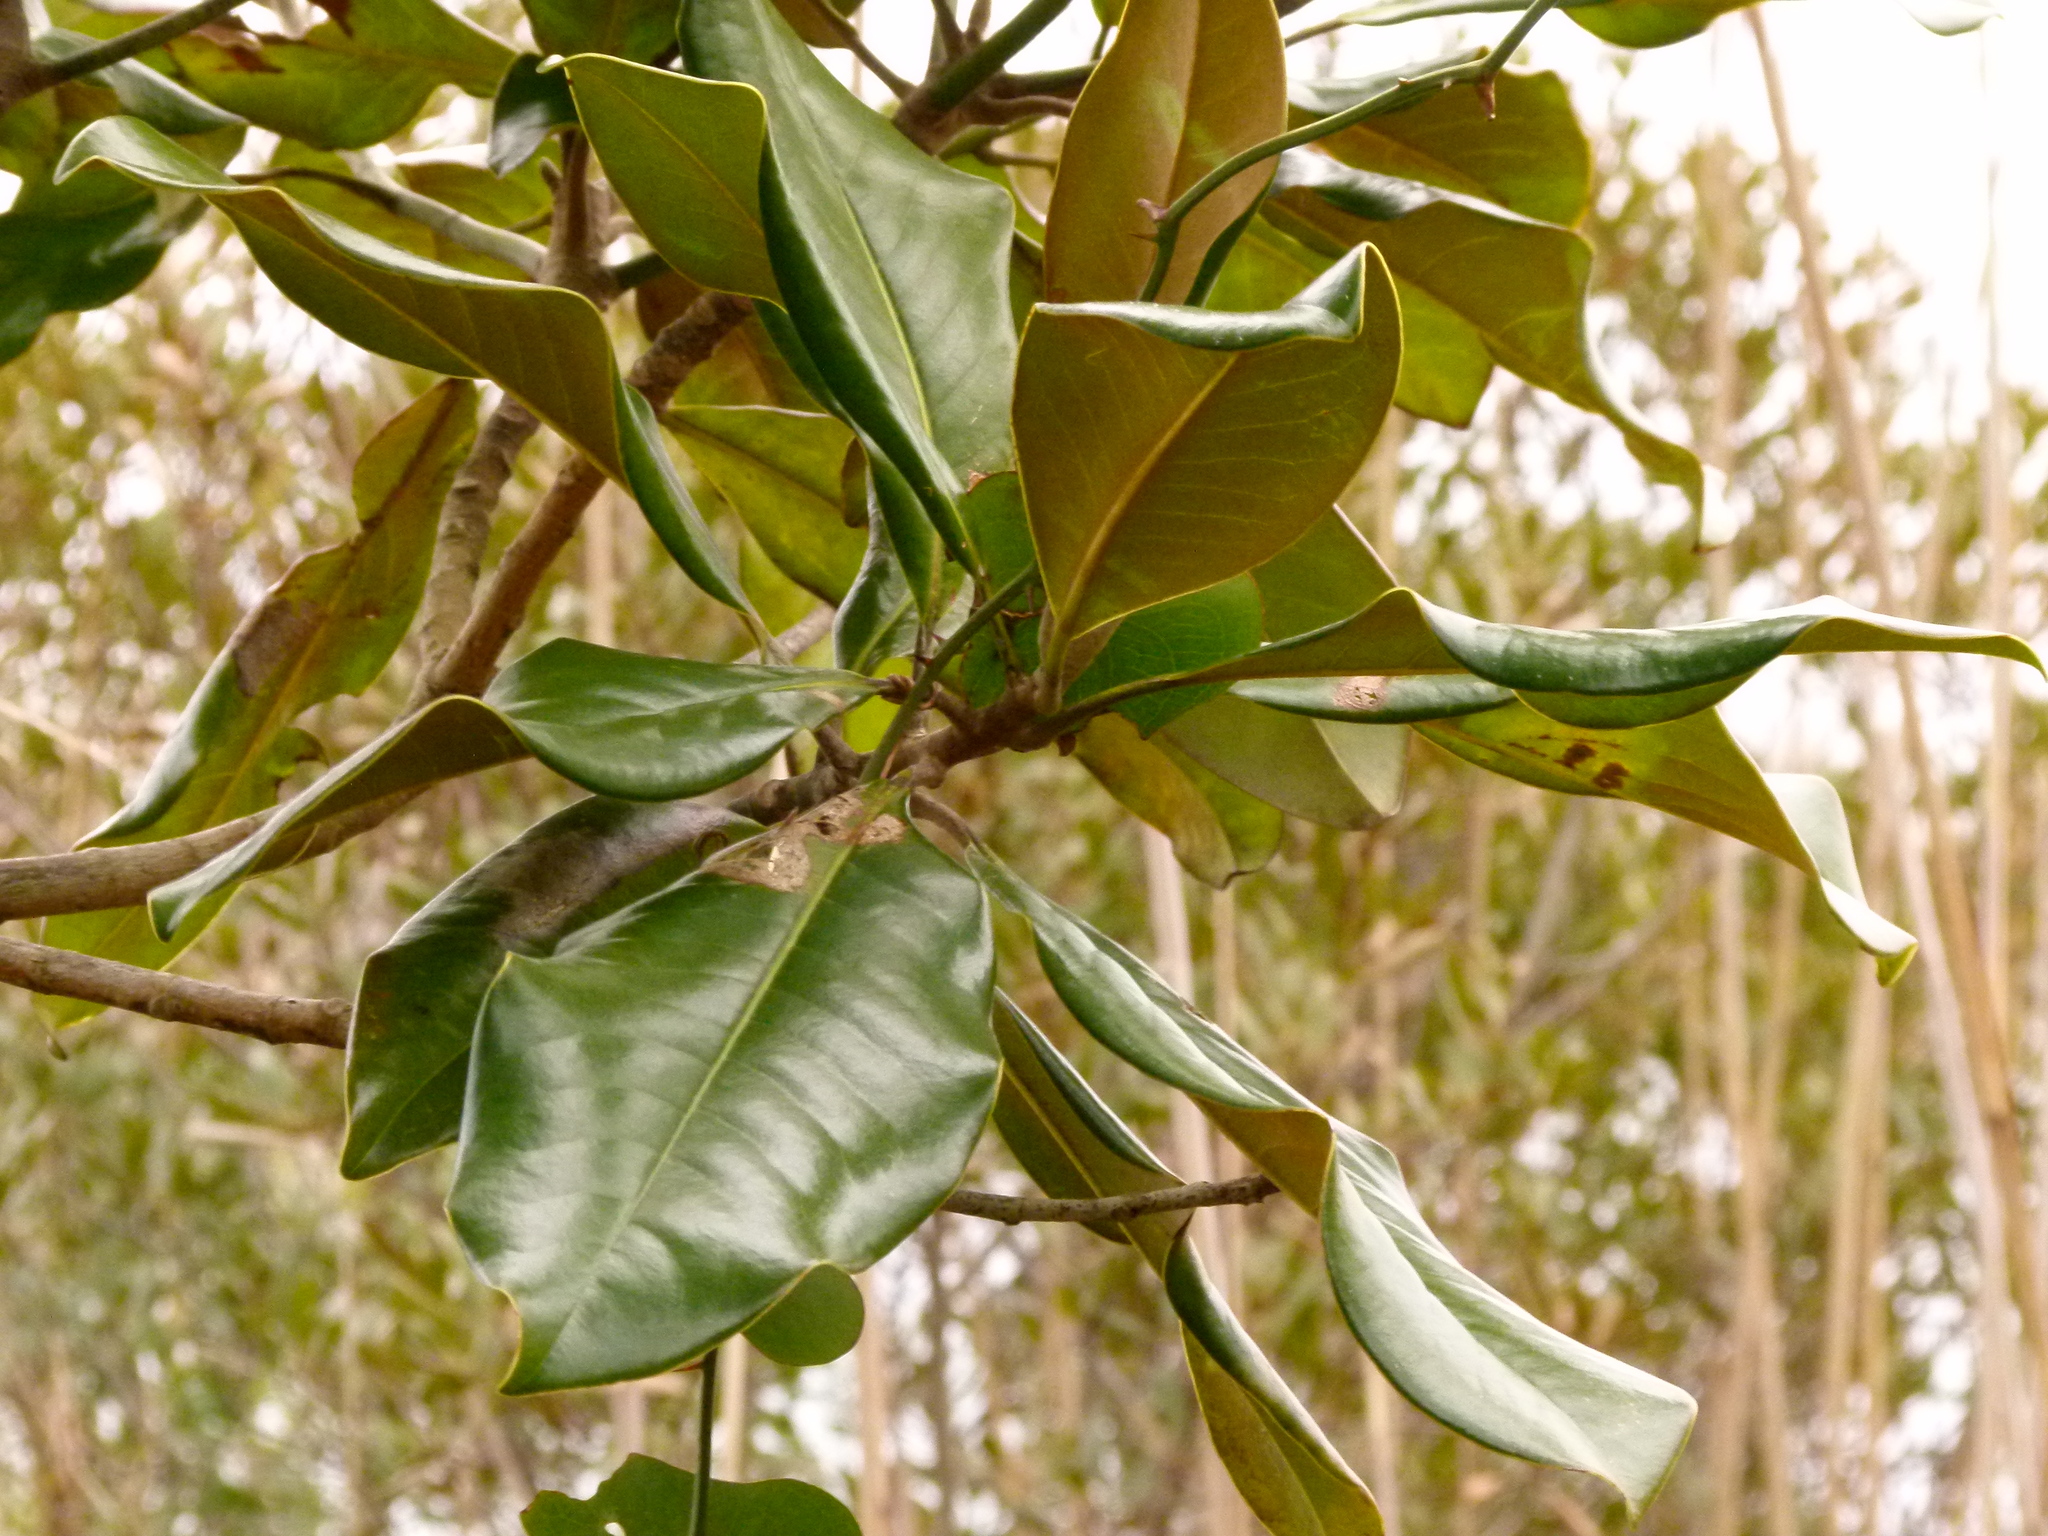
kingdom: Plantae
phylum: Tracheophyta
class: Magnoliopsida
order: Magnoliales
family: Magnoliaceae
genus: Magnolia
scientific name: Magnolia grandiflora
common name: Southern magnolia
